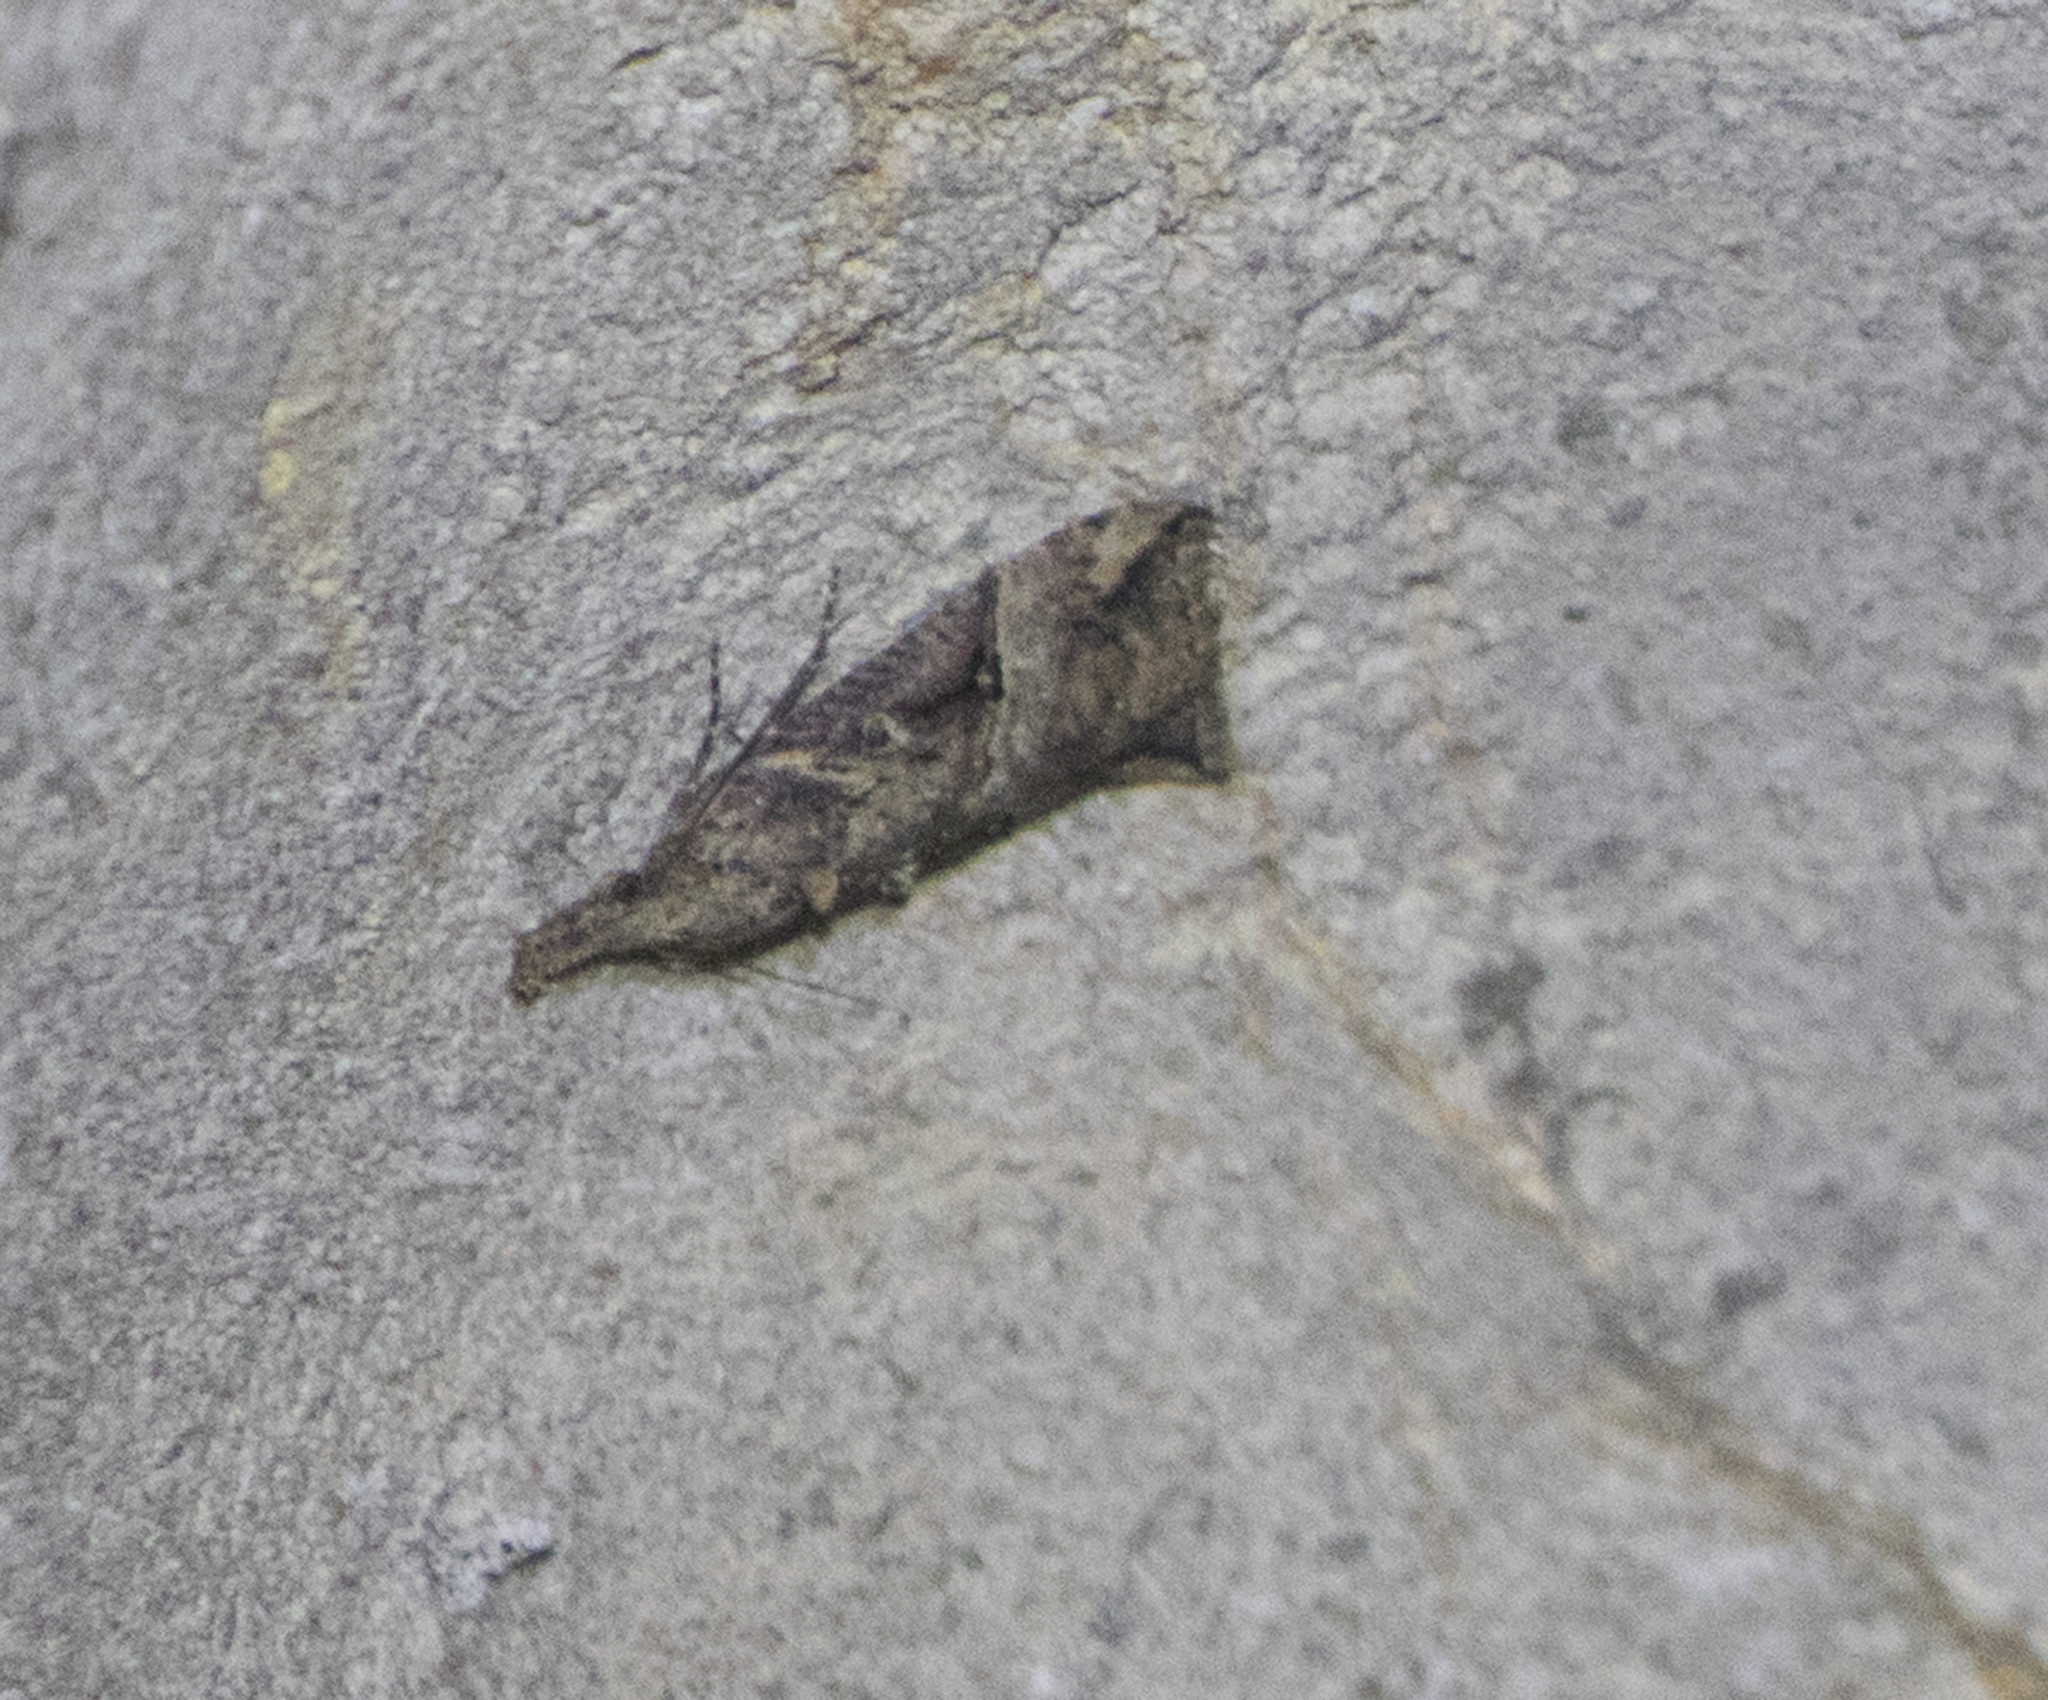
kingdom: Animalia
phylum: Arthropoda
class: Insecta
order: Lepidoptera
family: Erebidae
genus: Hypena
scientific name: Hypena rostralis
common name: Buttoned snout
